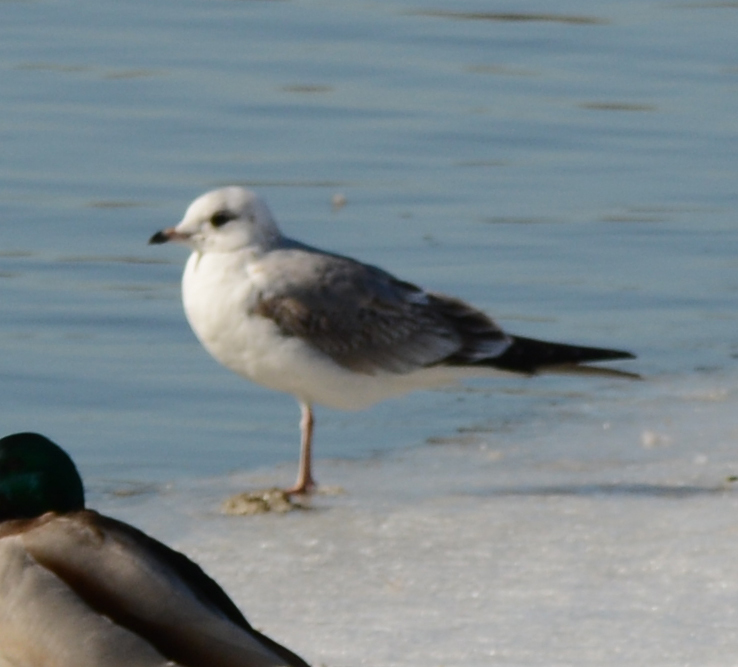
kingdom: Animalia
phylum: Chordata
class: Aves
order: Charadriiformes
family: Laridae
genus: Larus
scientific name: Larus canus
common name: Mew gull
